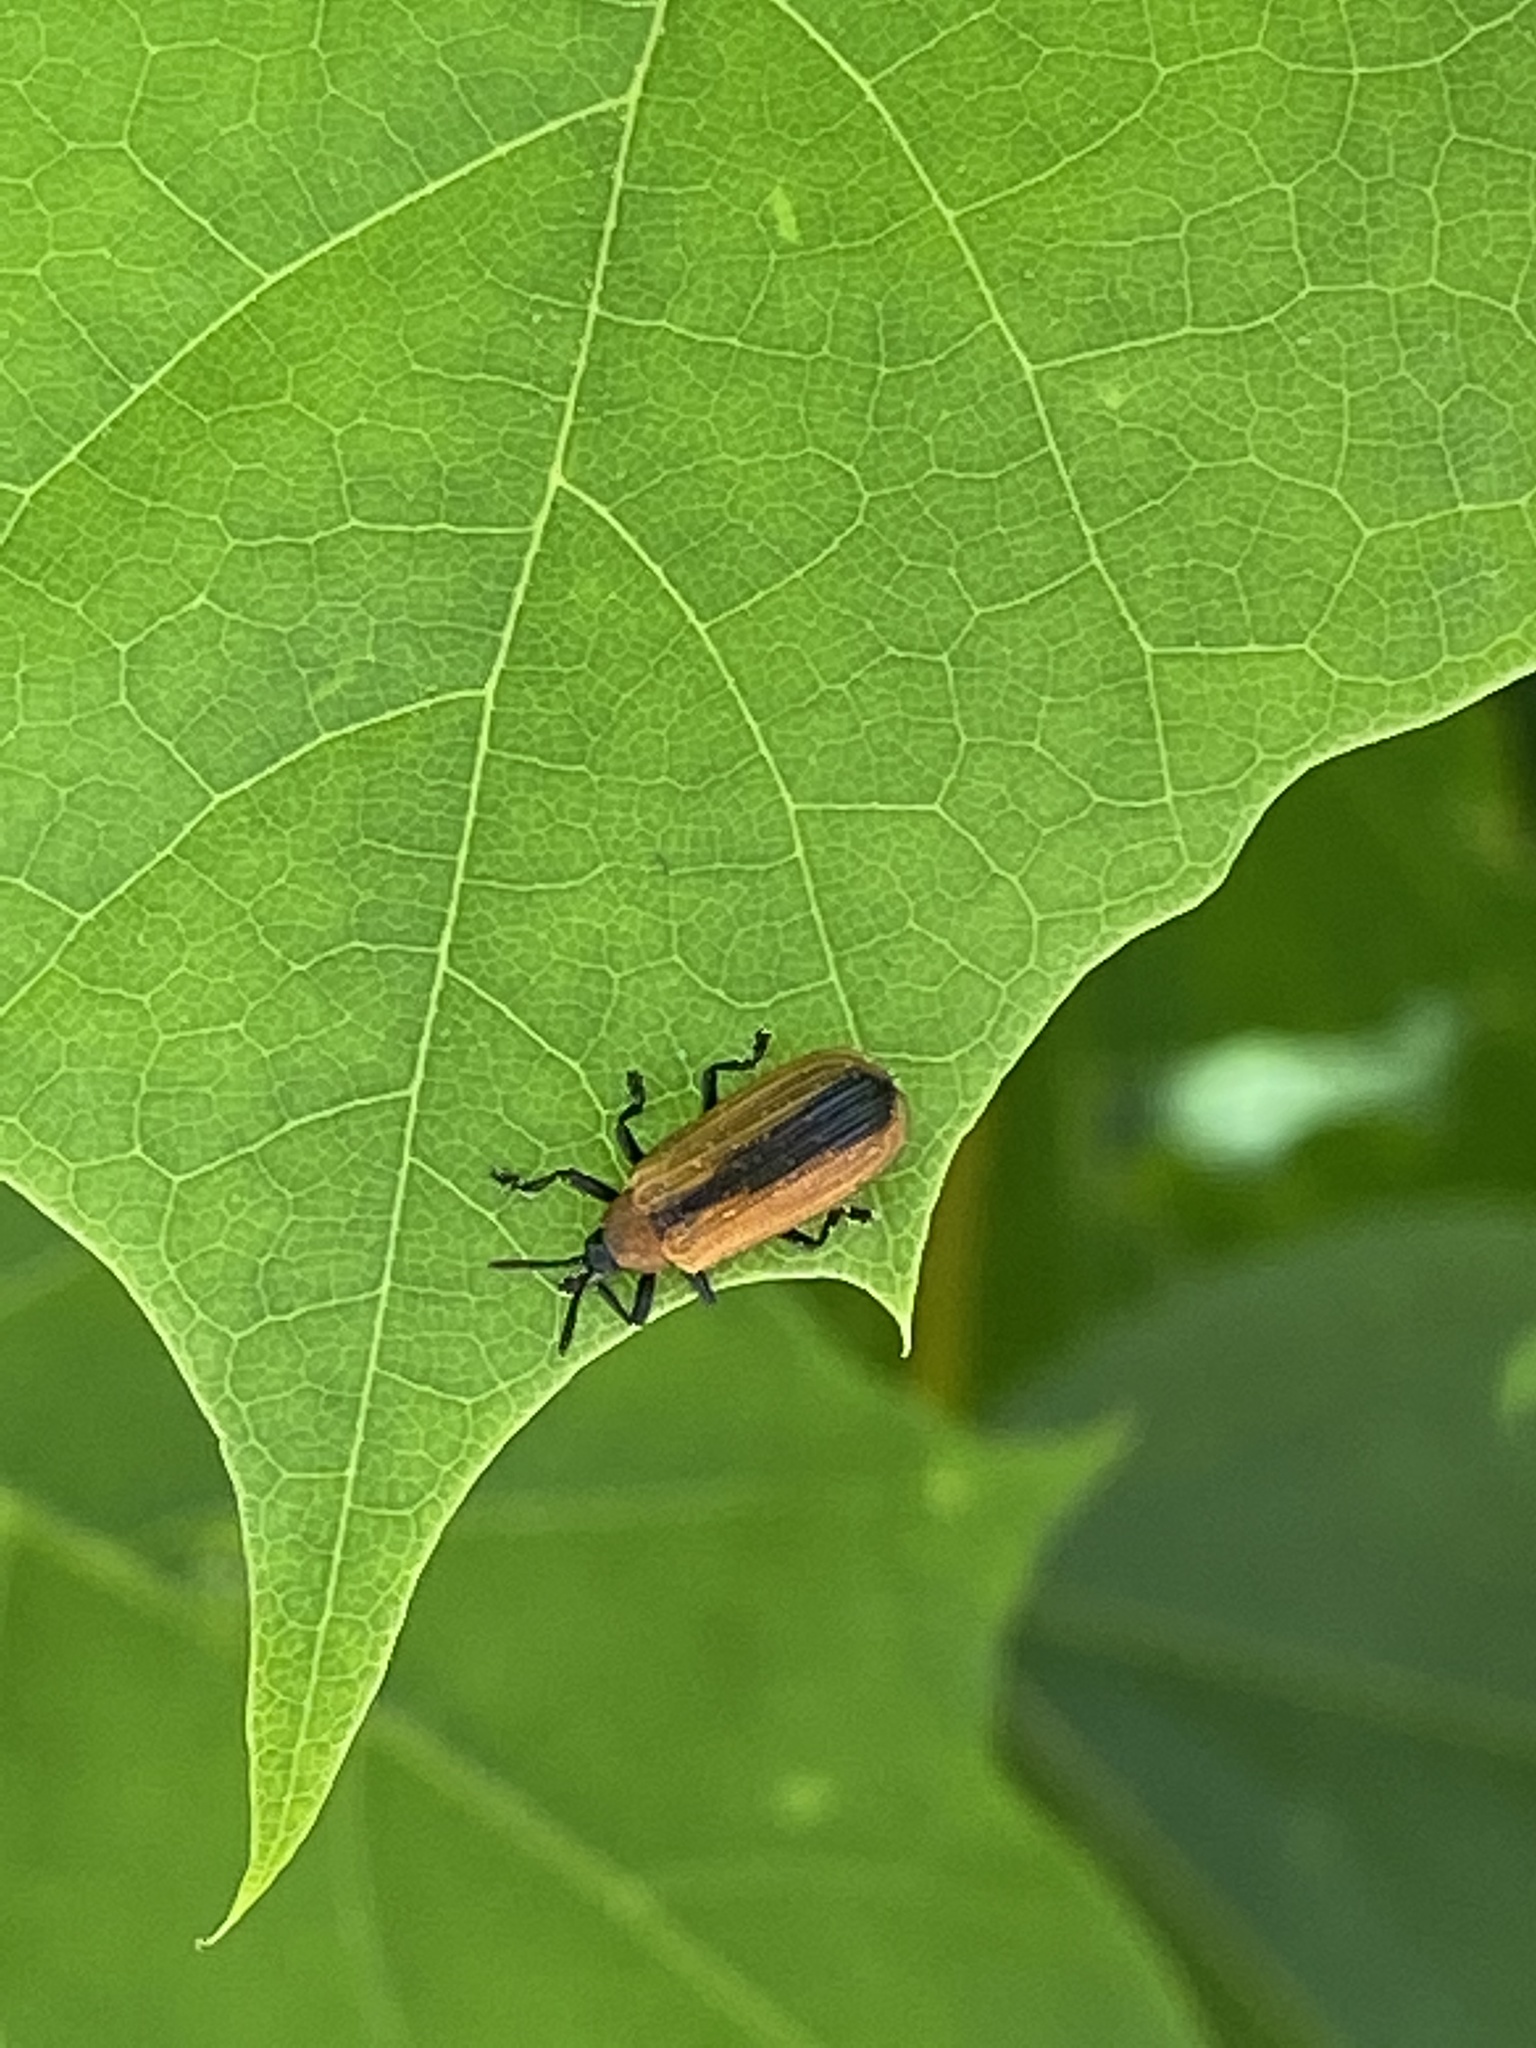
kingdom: Animalia
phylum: Arthropoda
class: Insecta
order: Coleoptera
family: Chrysomelidae
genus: Odontota
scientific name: Odontota dorsalis
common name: Locust leaf-miner beetle
